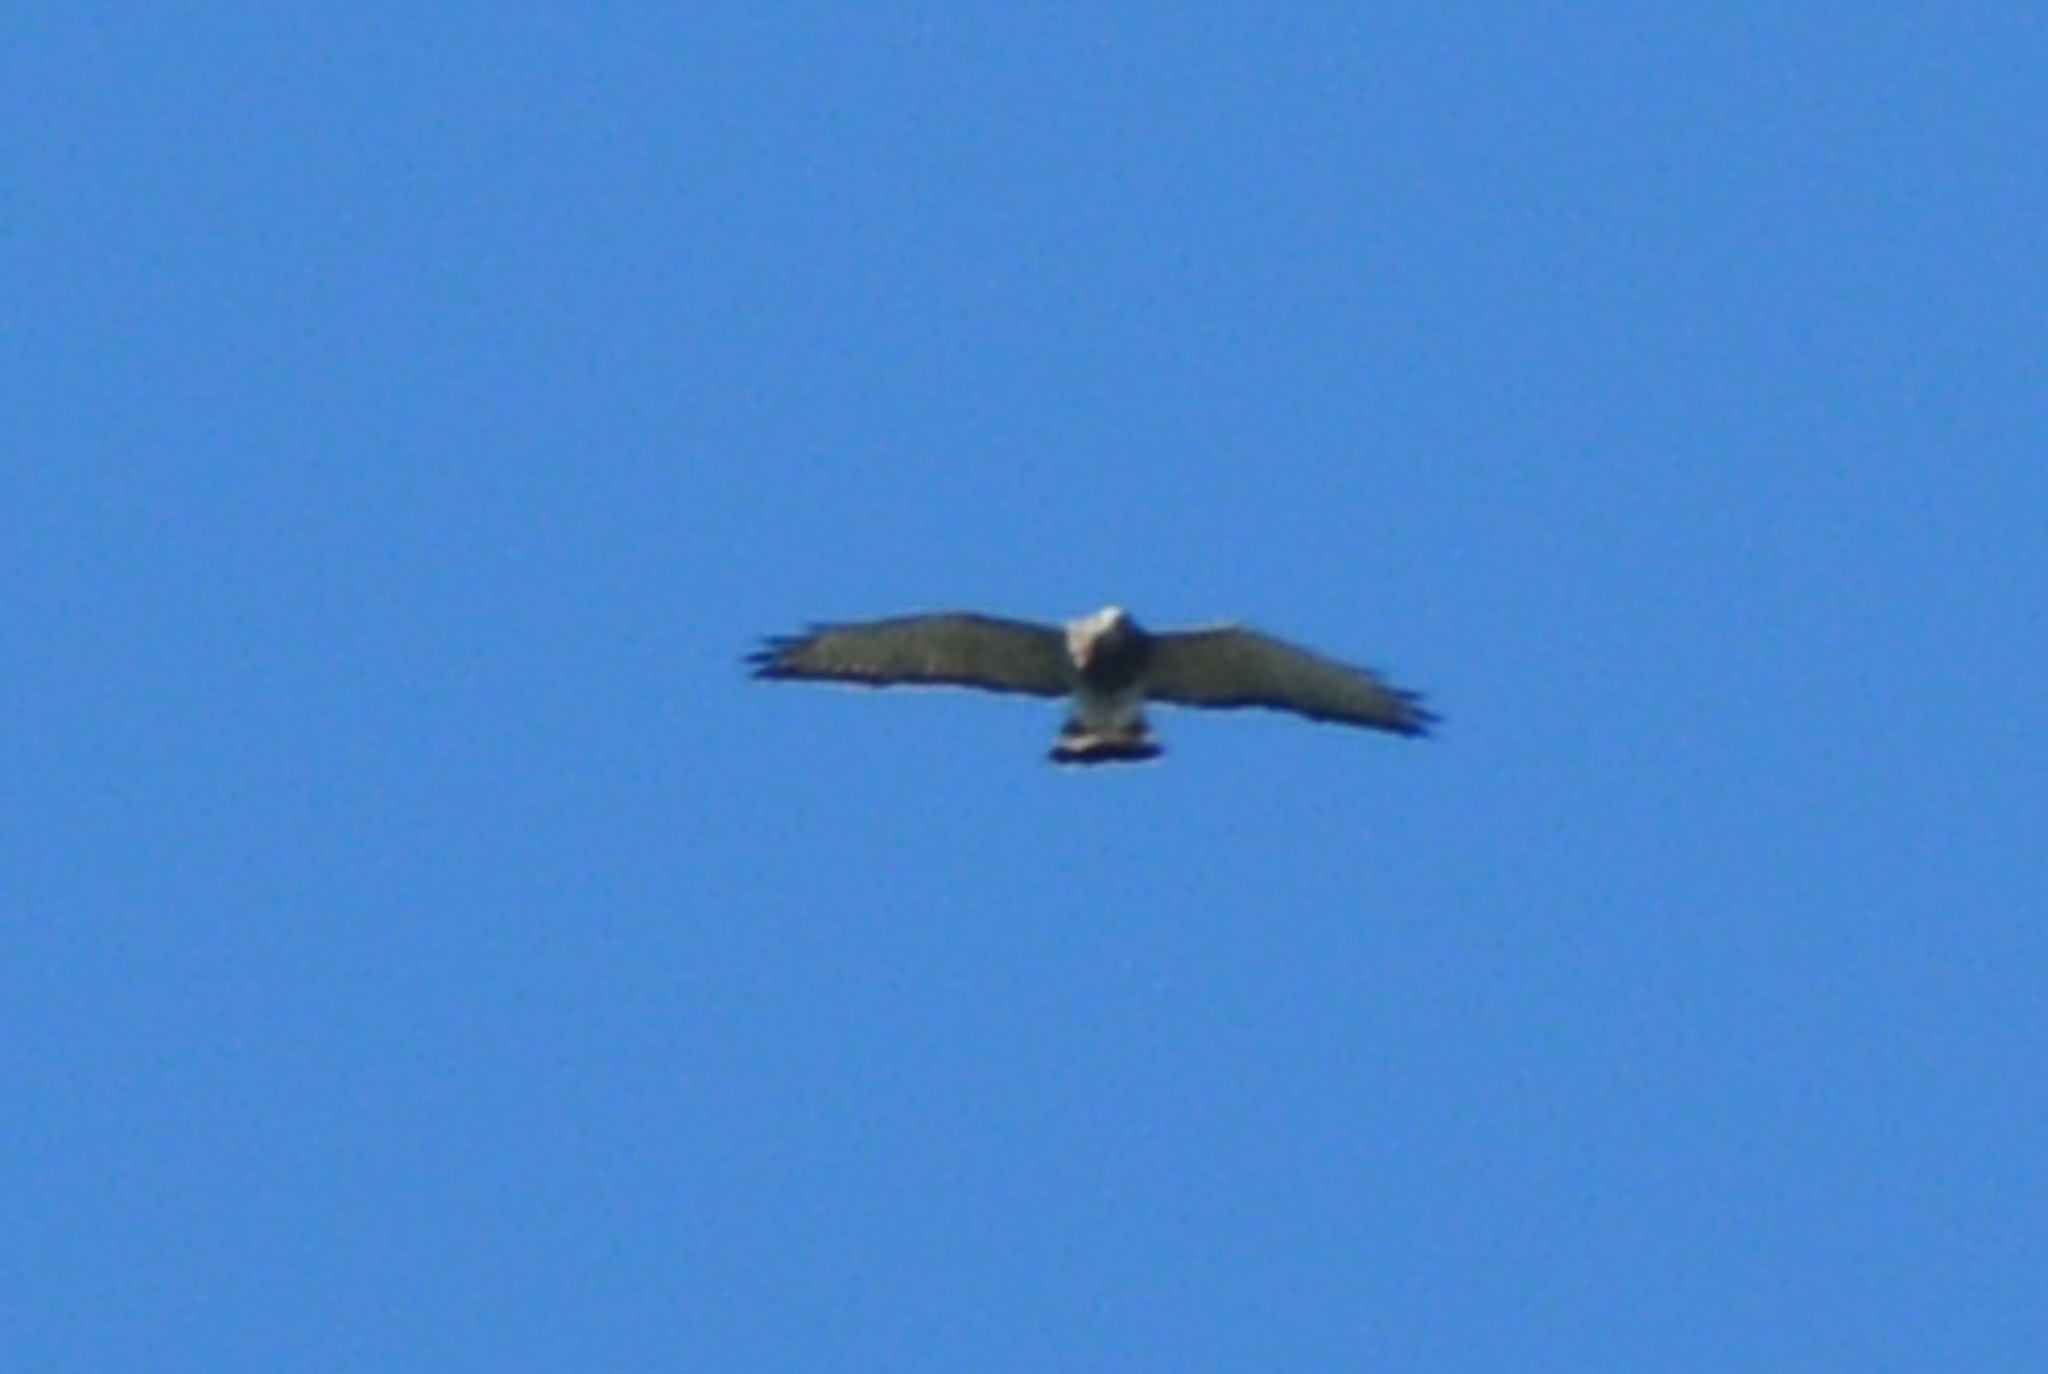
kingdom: Animalia
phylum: Chordata
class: Aves
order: Accipitriformes
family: Accipitridae
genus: Buteo
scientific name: Buteo platypterus
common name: Broad-winged hawk
